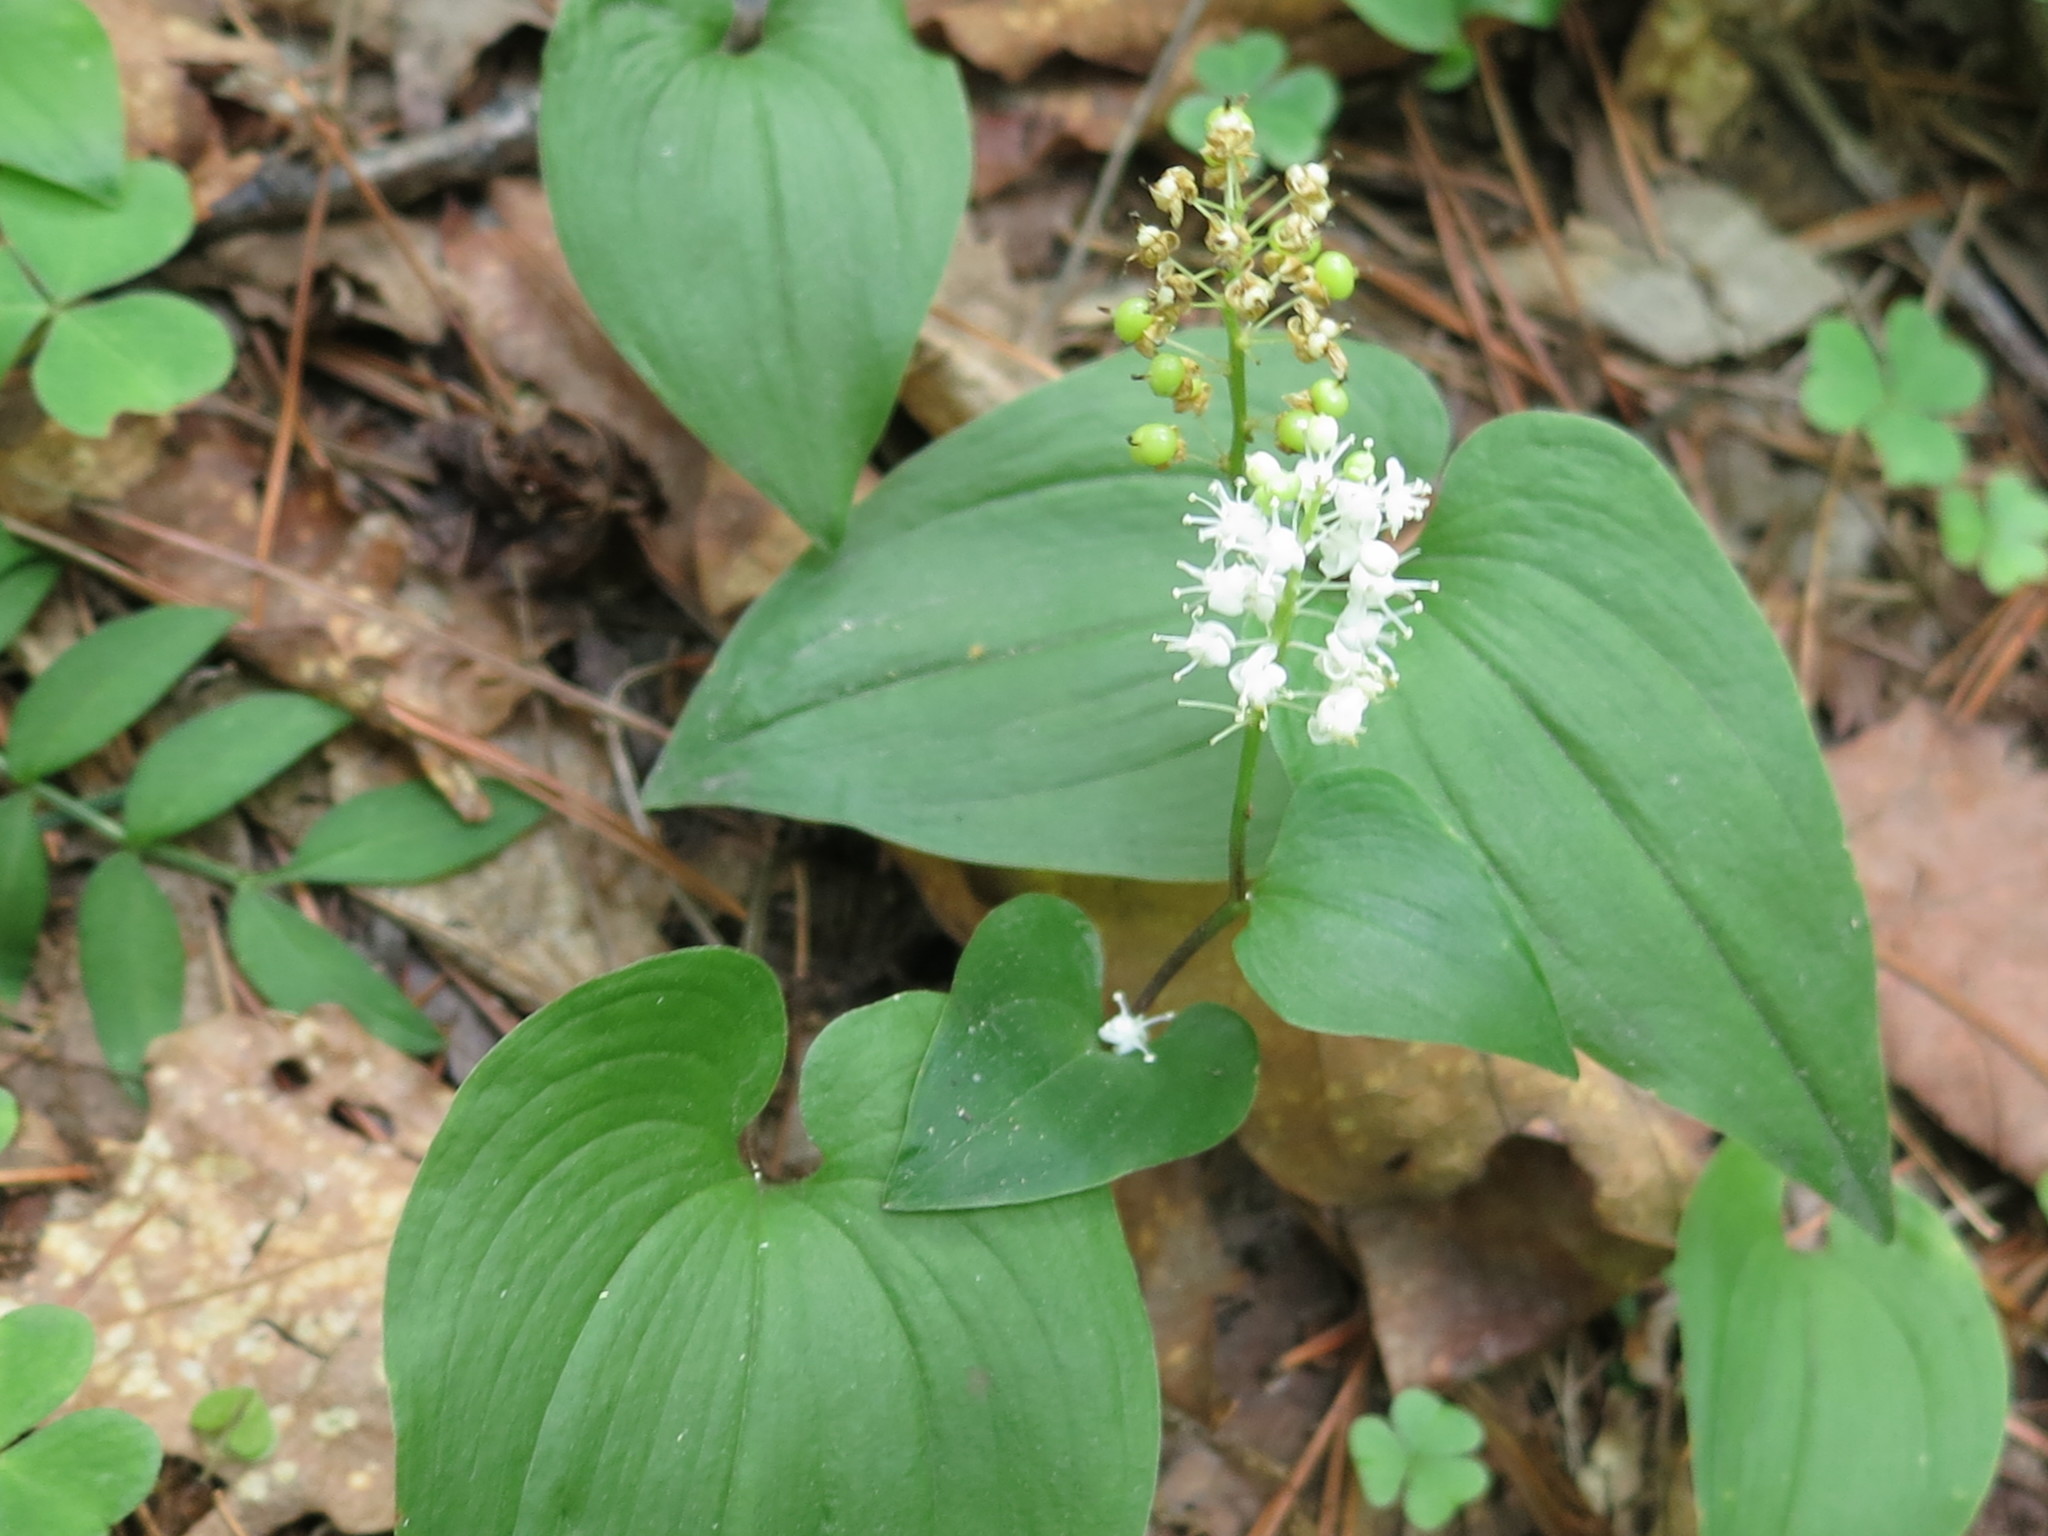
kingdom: Plantae
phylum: Tracheophyta
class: Liliopsida
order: Asparagales
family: Asparagaceae
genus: Maianthemum
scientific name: Maianthemum bifolium
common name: May lily
